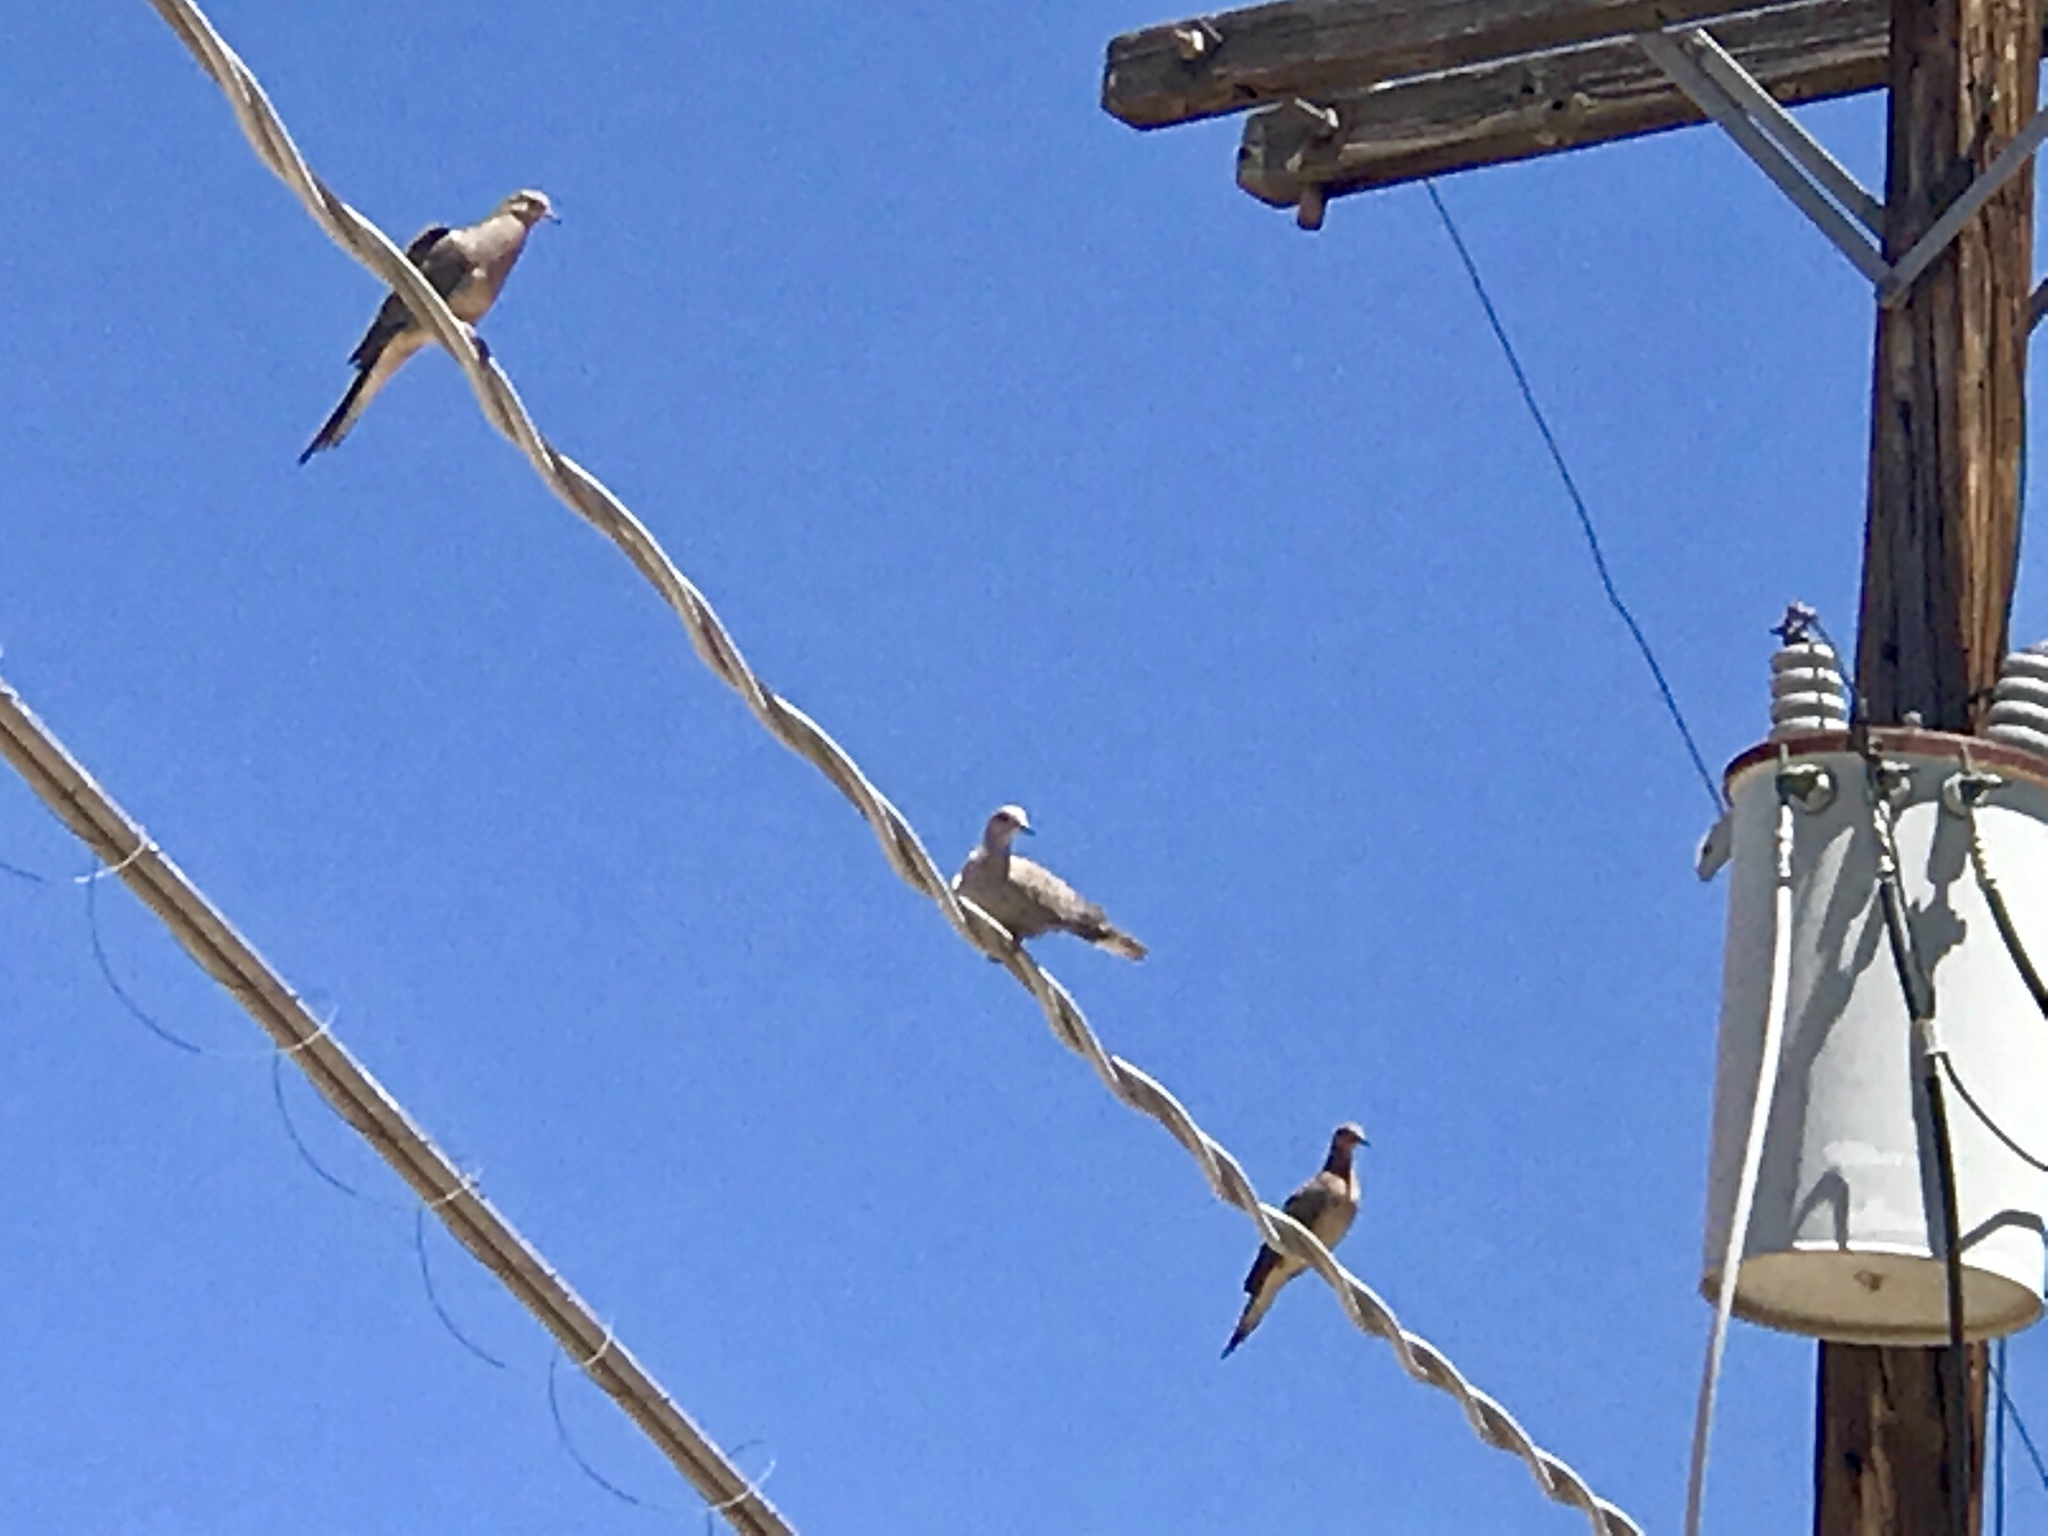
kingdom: Animalia
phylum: Chordata
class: Aves
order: Columbiformes
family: Columbidae
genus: Zenaida
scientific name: Zenaida macroura
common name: Mourning dove
